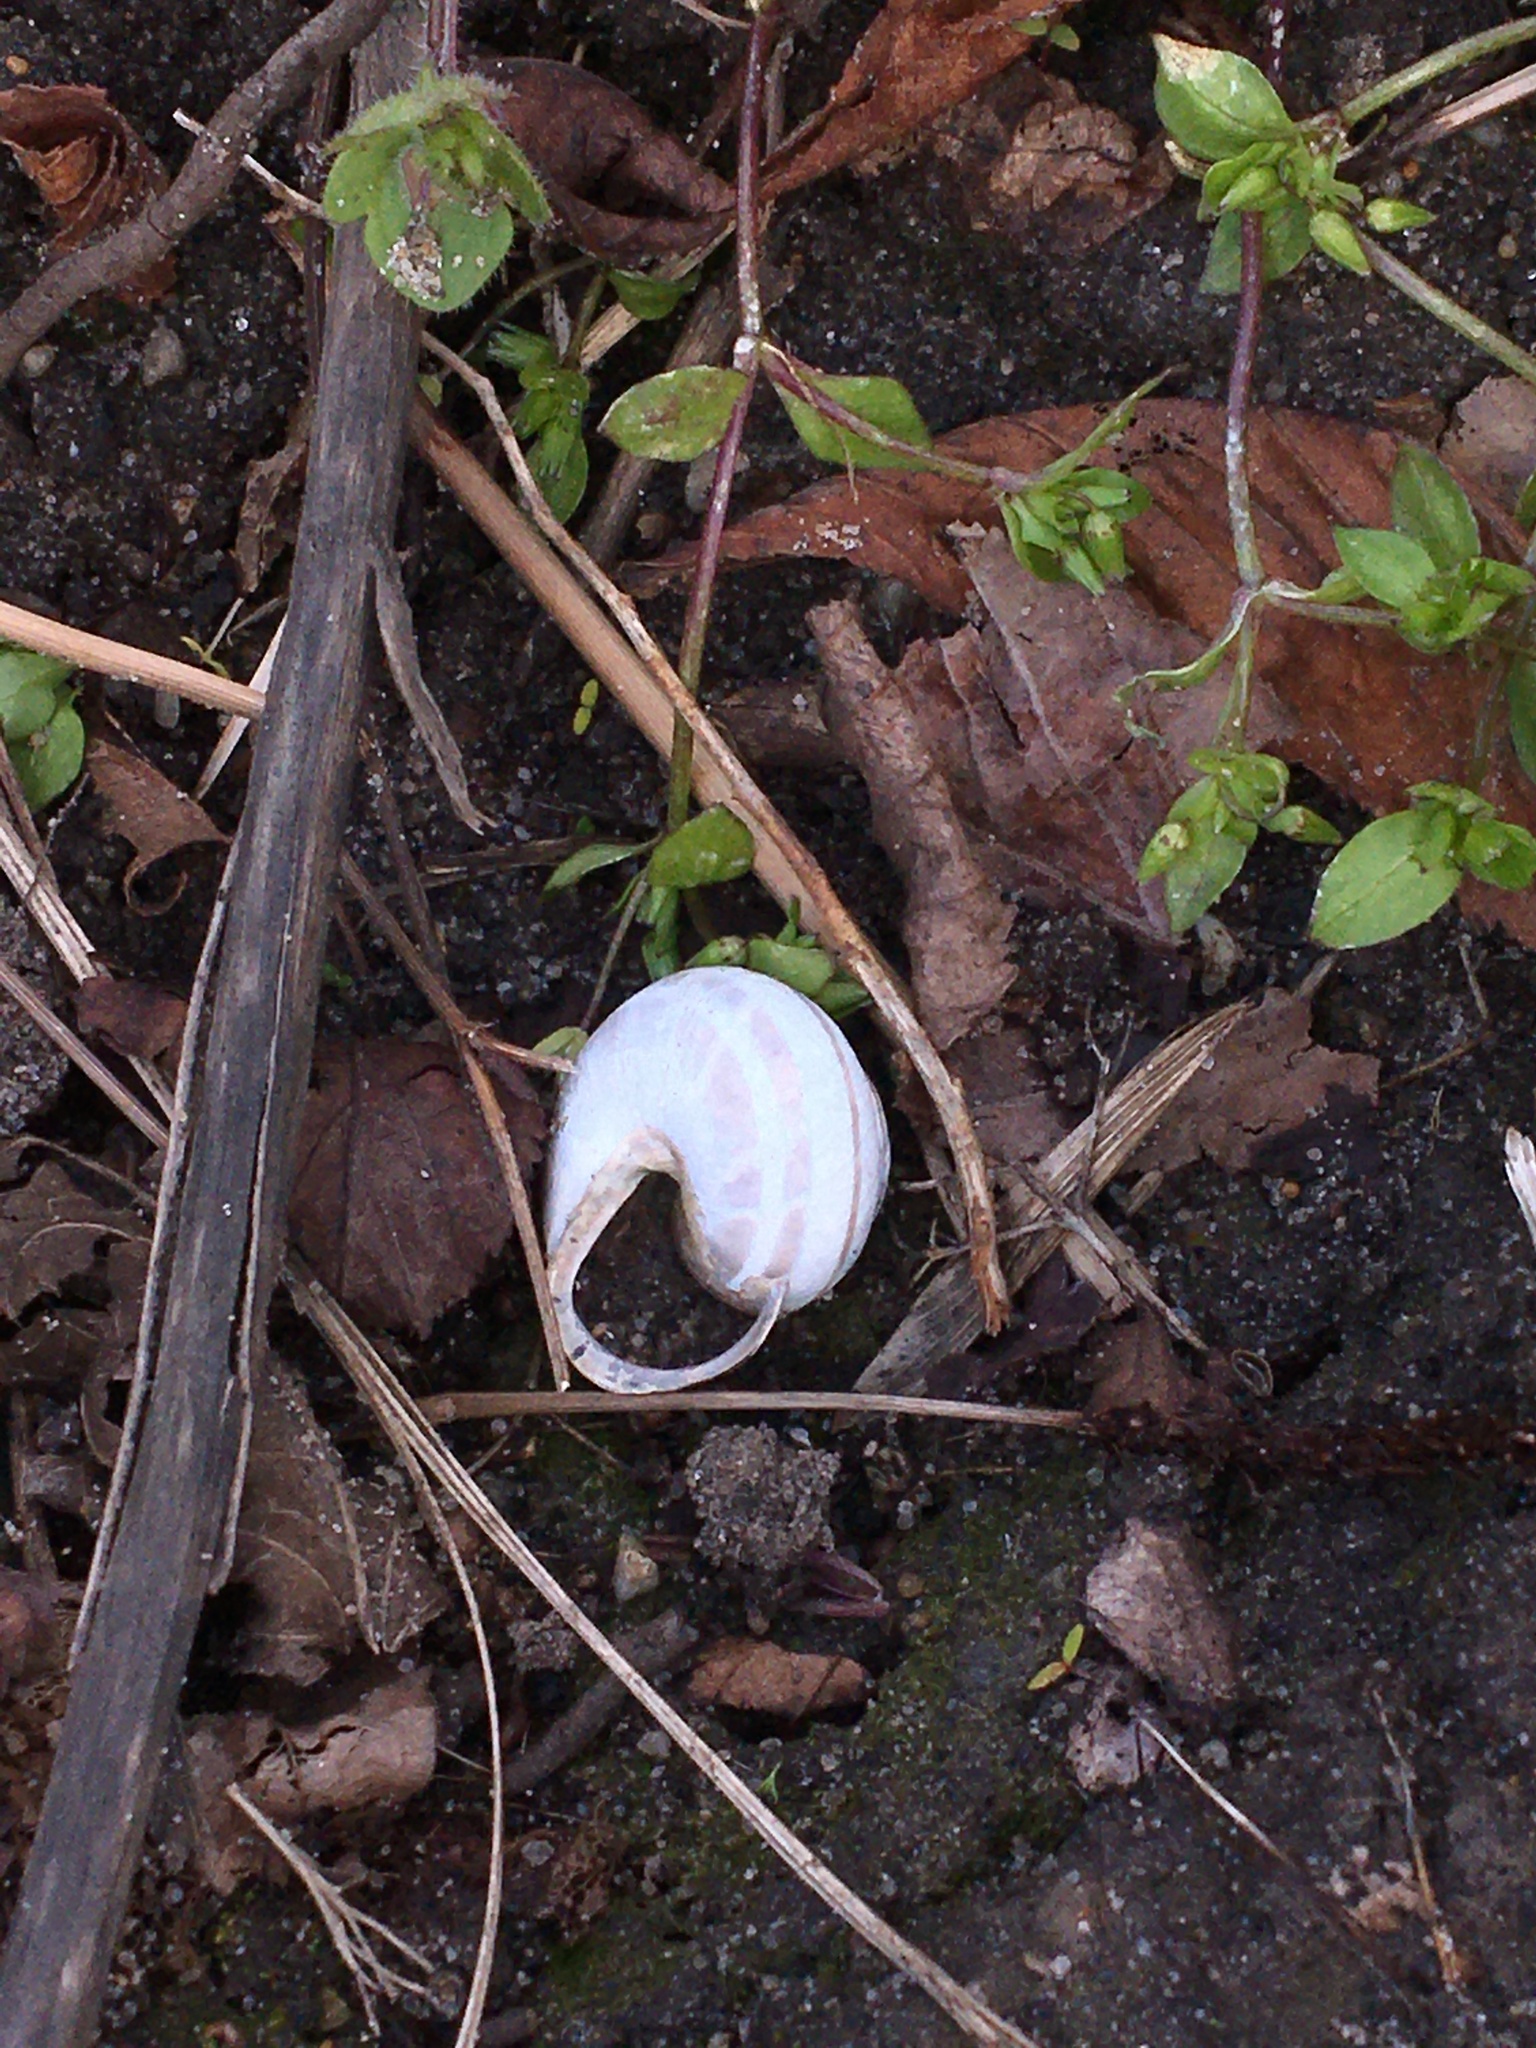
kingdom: Animalia
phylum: Mollusca
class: Gastropoda
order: Stylommatophora
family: Helicidae
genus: Cepaea
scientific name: Cepaea nemoralis
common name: Grovesnail
